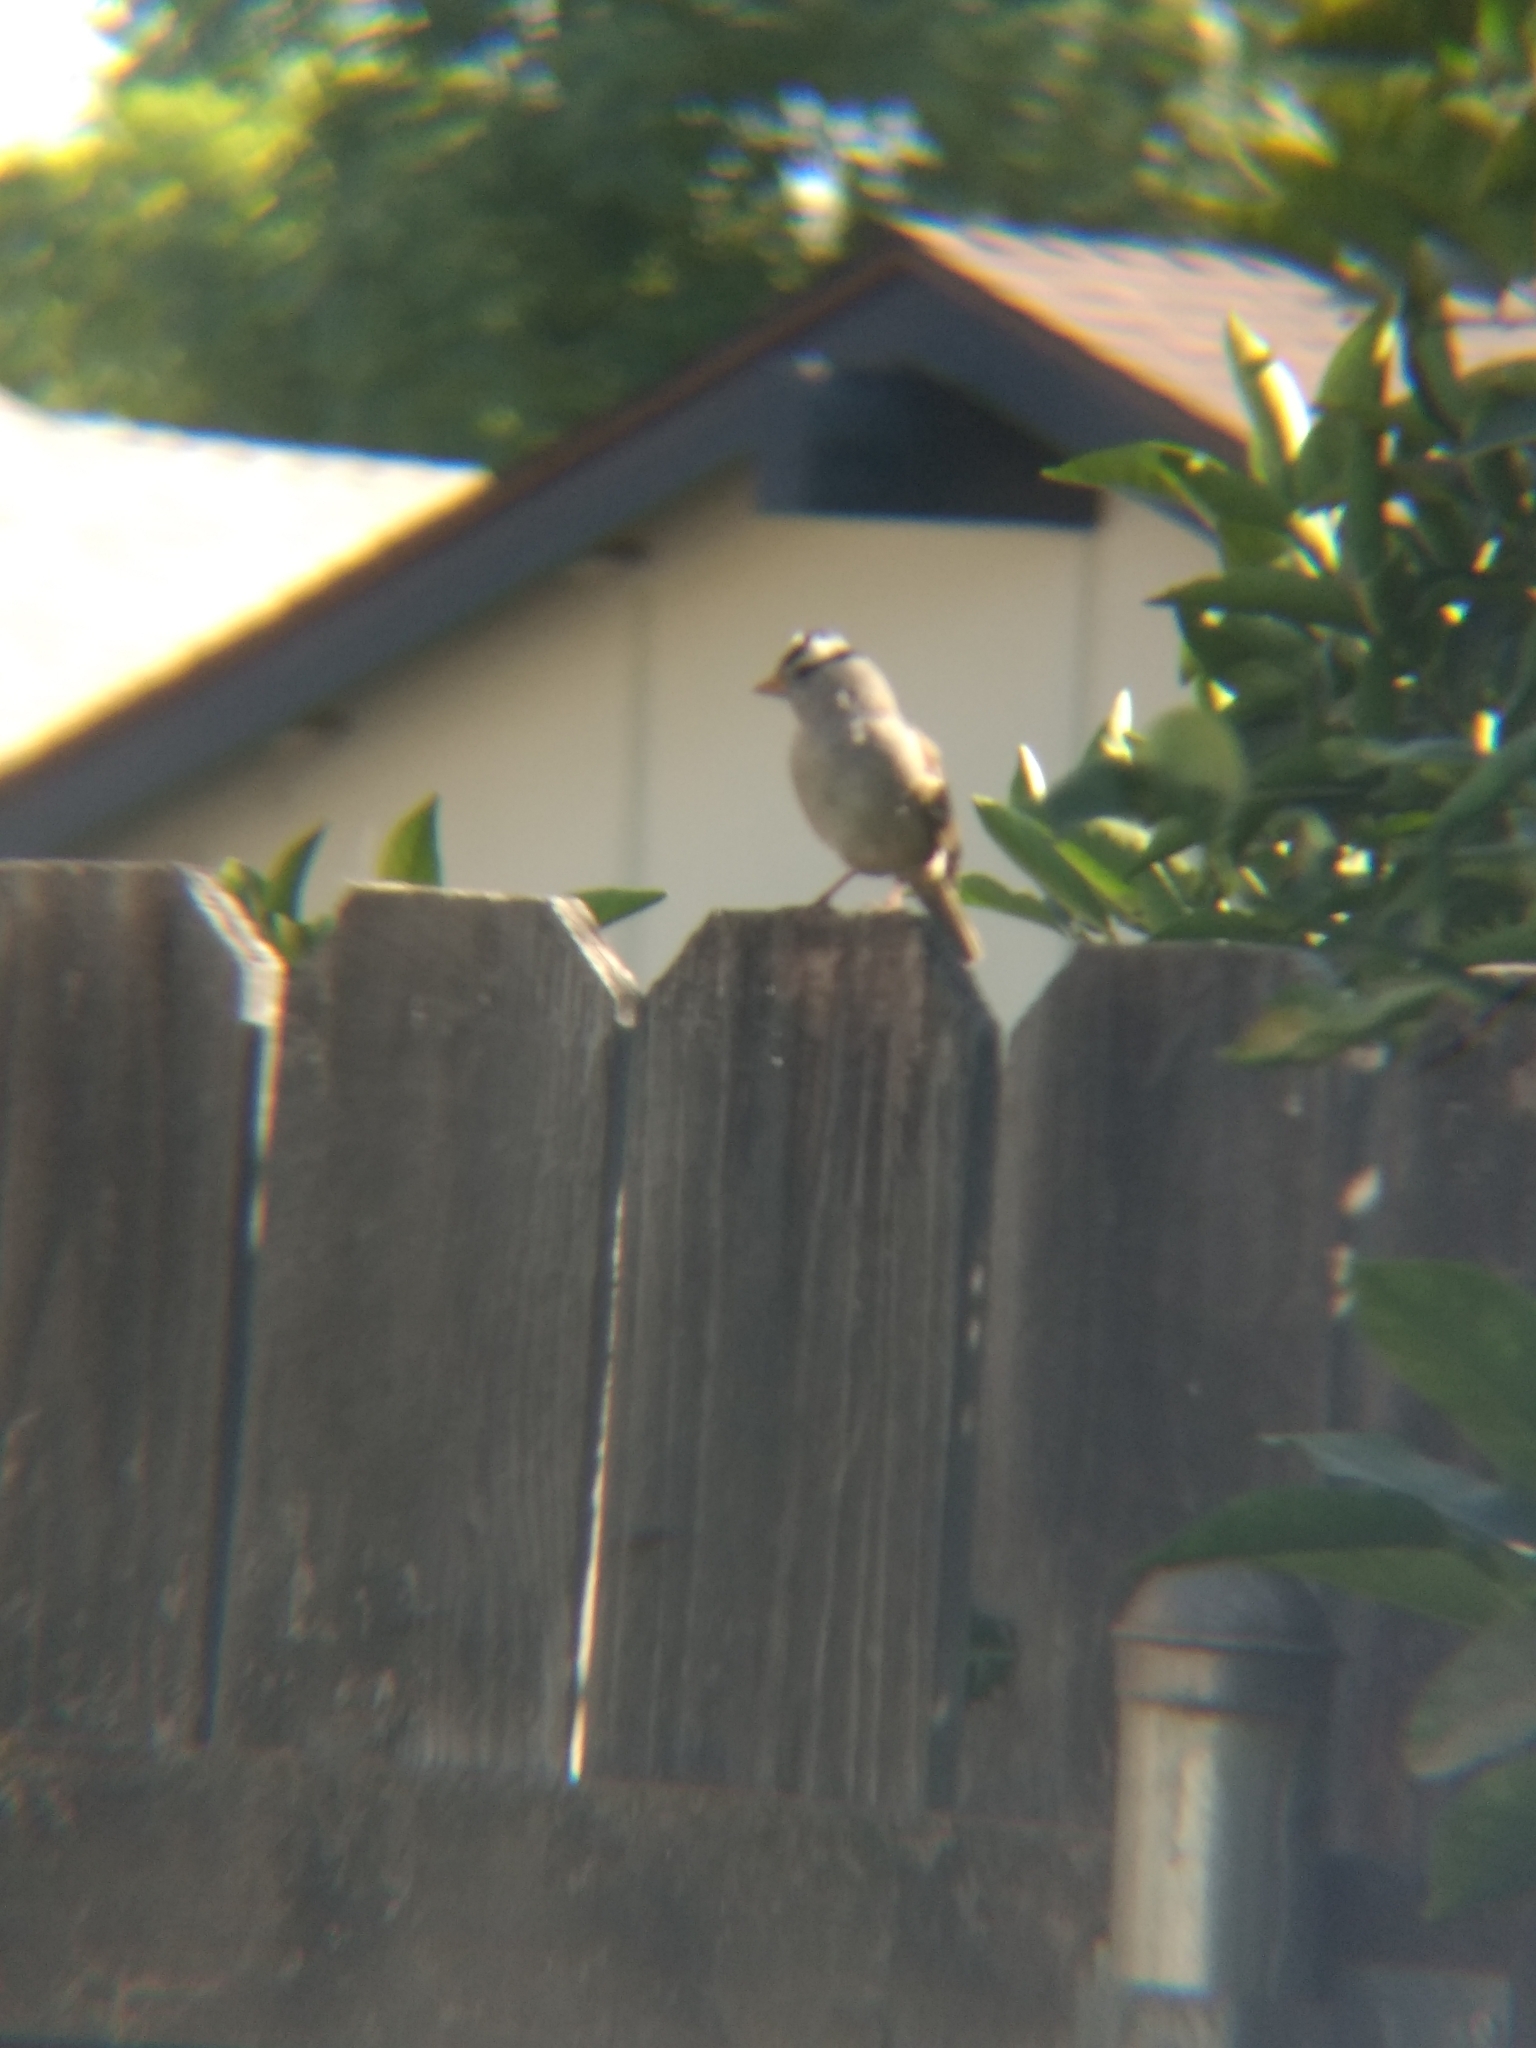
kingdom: Animalia
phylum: Chordata
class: Aves
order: Passeriformes
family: Passerellidae
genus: Zonotrichia
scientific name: Zonotrichia leucophrys
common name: White-crowned sparrow
